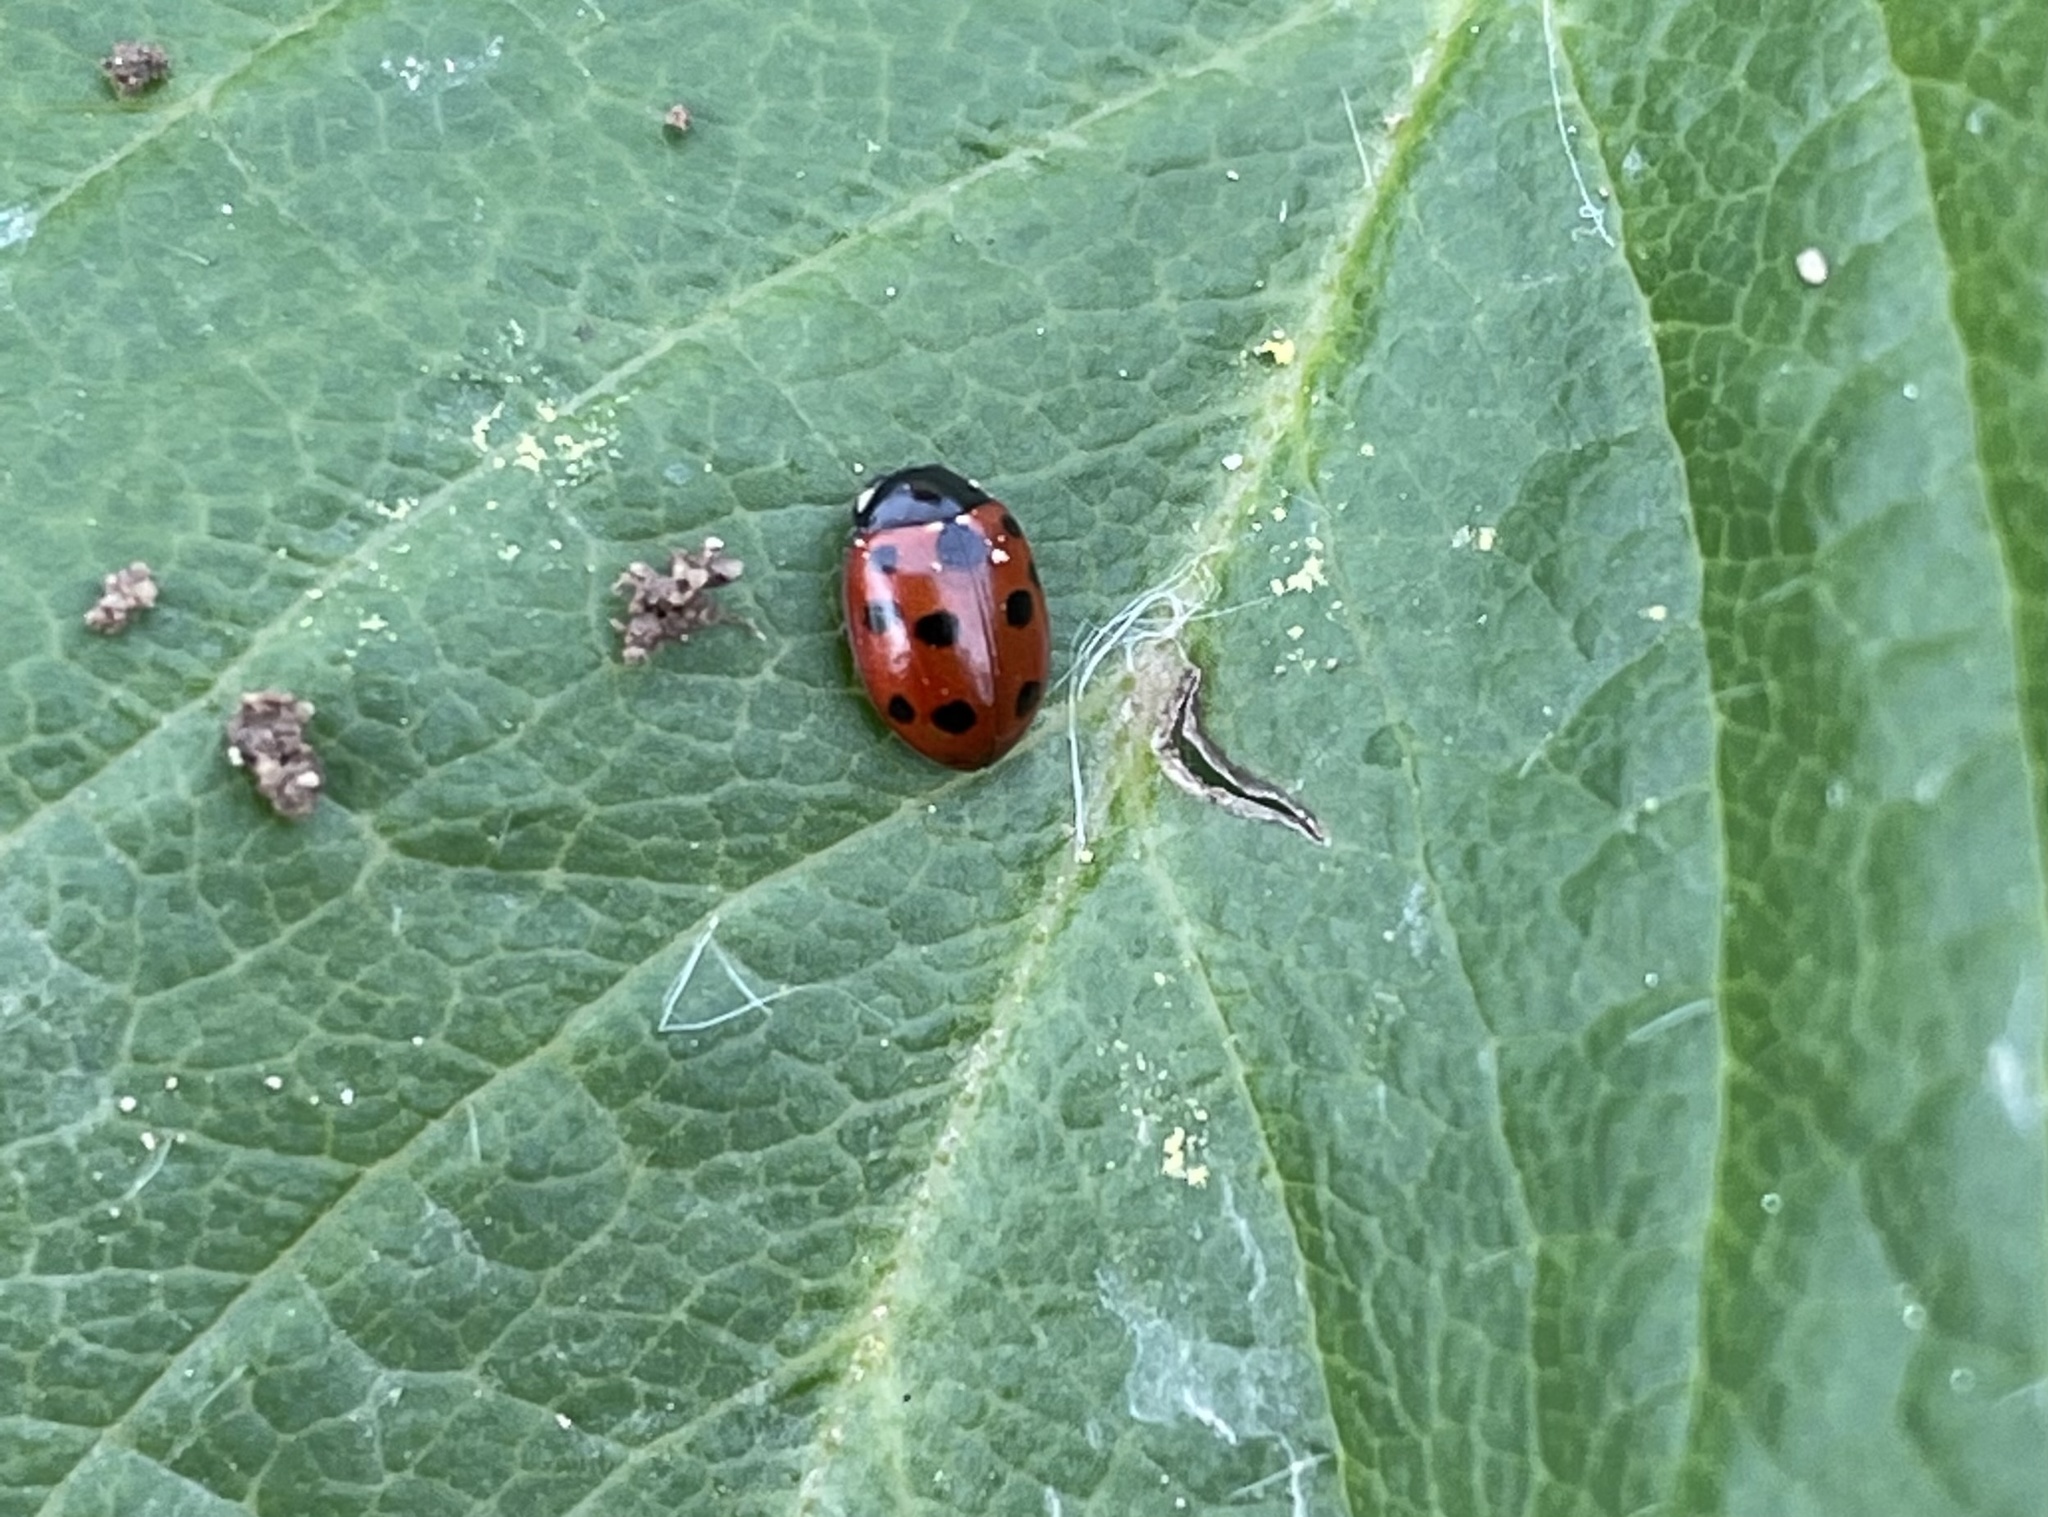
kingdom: Animalia
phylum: Arthropoda
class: Insecta
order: Coleoptera
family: Coccinellidae
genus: Coccinella
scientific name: Coccinella undecimpunctata
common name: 11-spot ladybird
